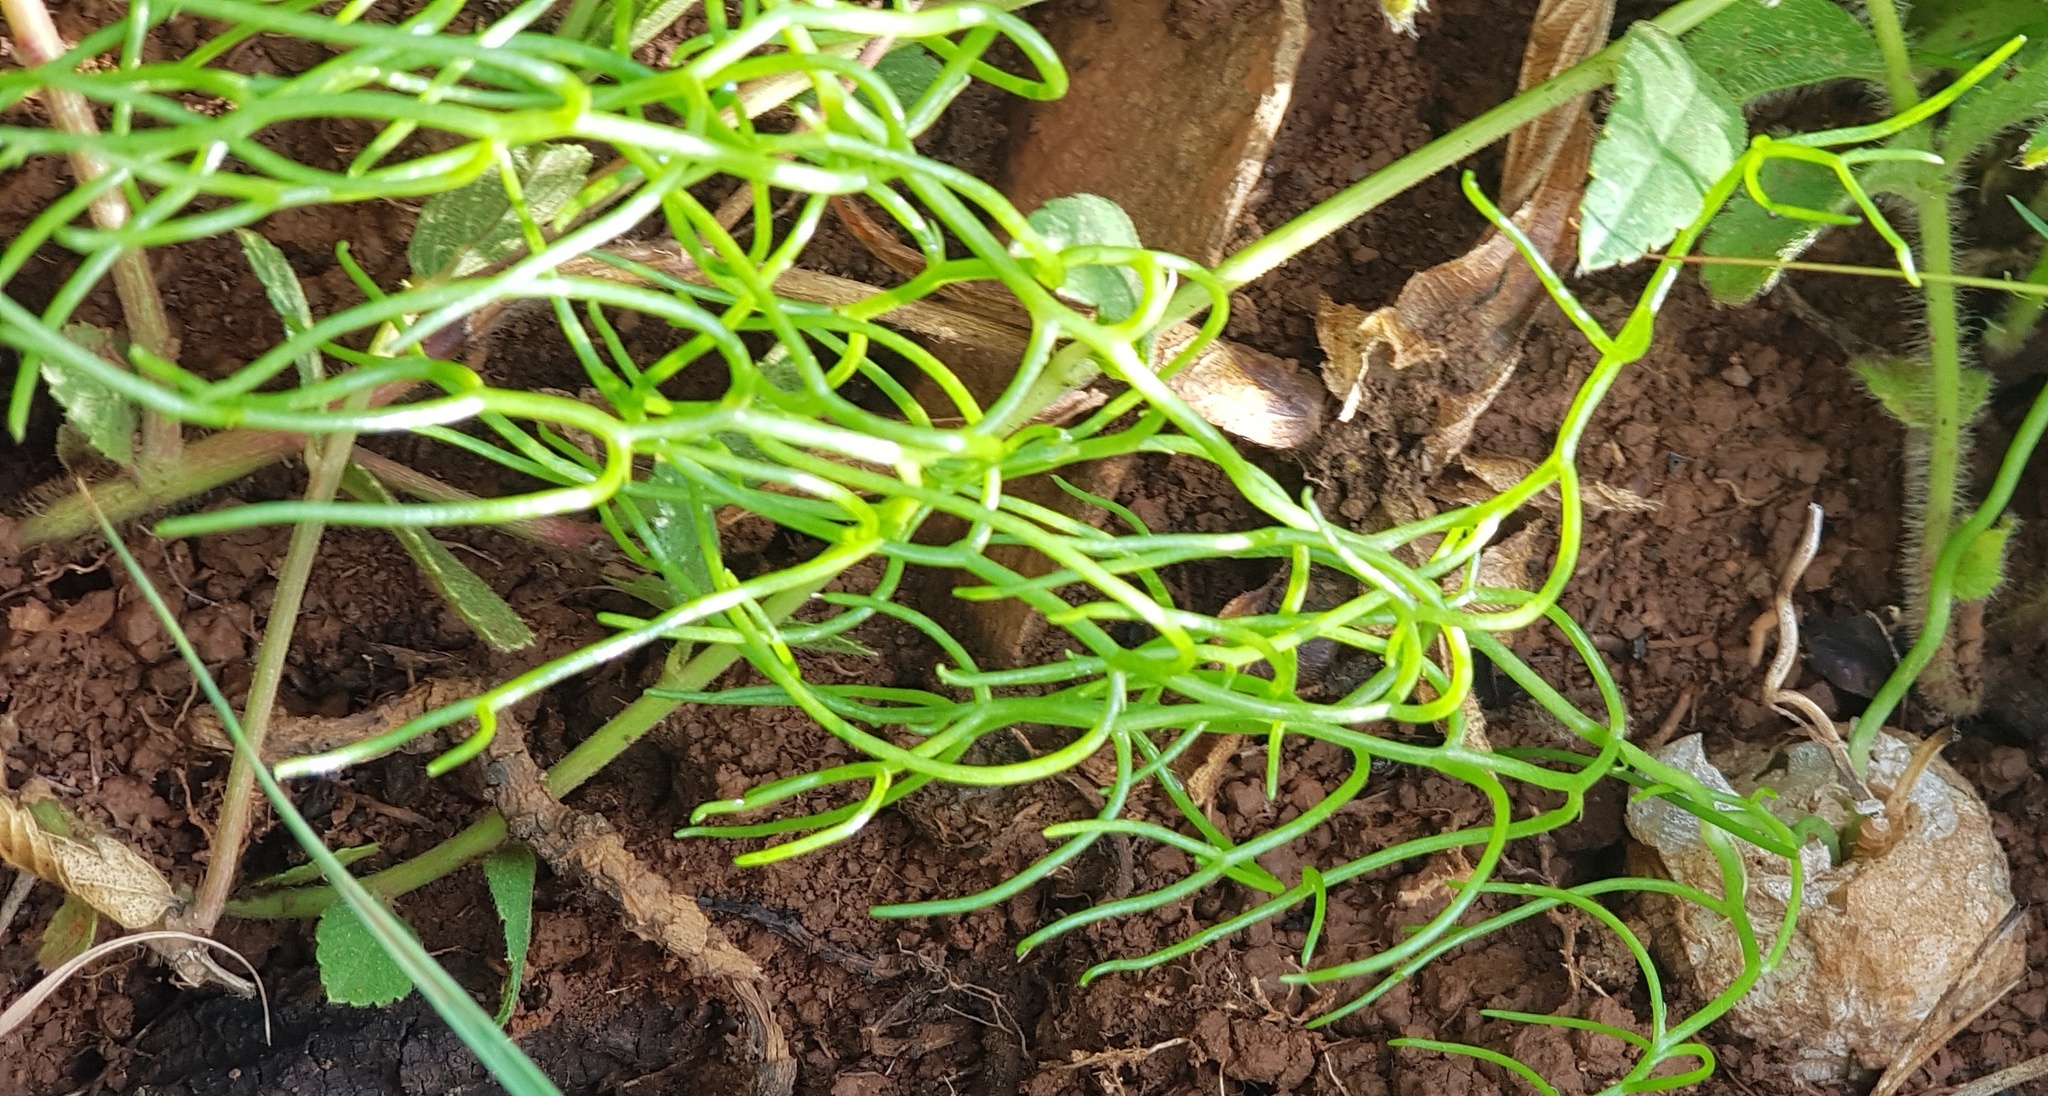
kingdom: Plantae
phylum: Tracheophyta
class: Liliopsida
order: Asparagales
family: Asparagaceae
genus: Bowiea
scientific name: Bowiea volubilis
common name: Climbing-onion
